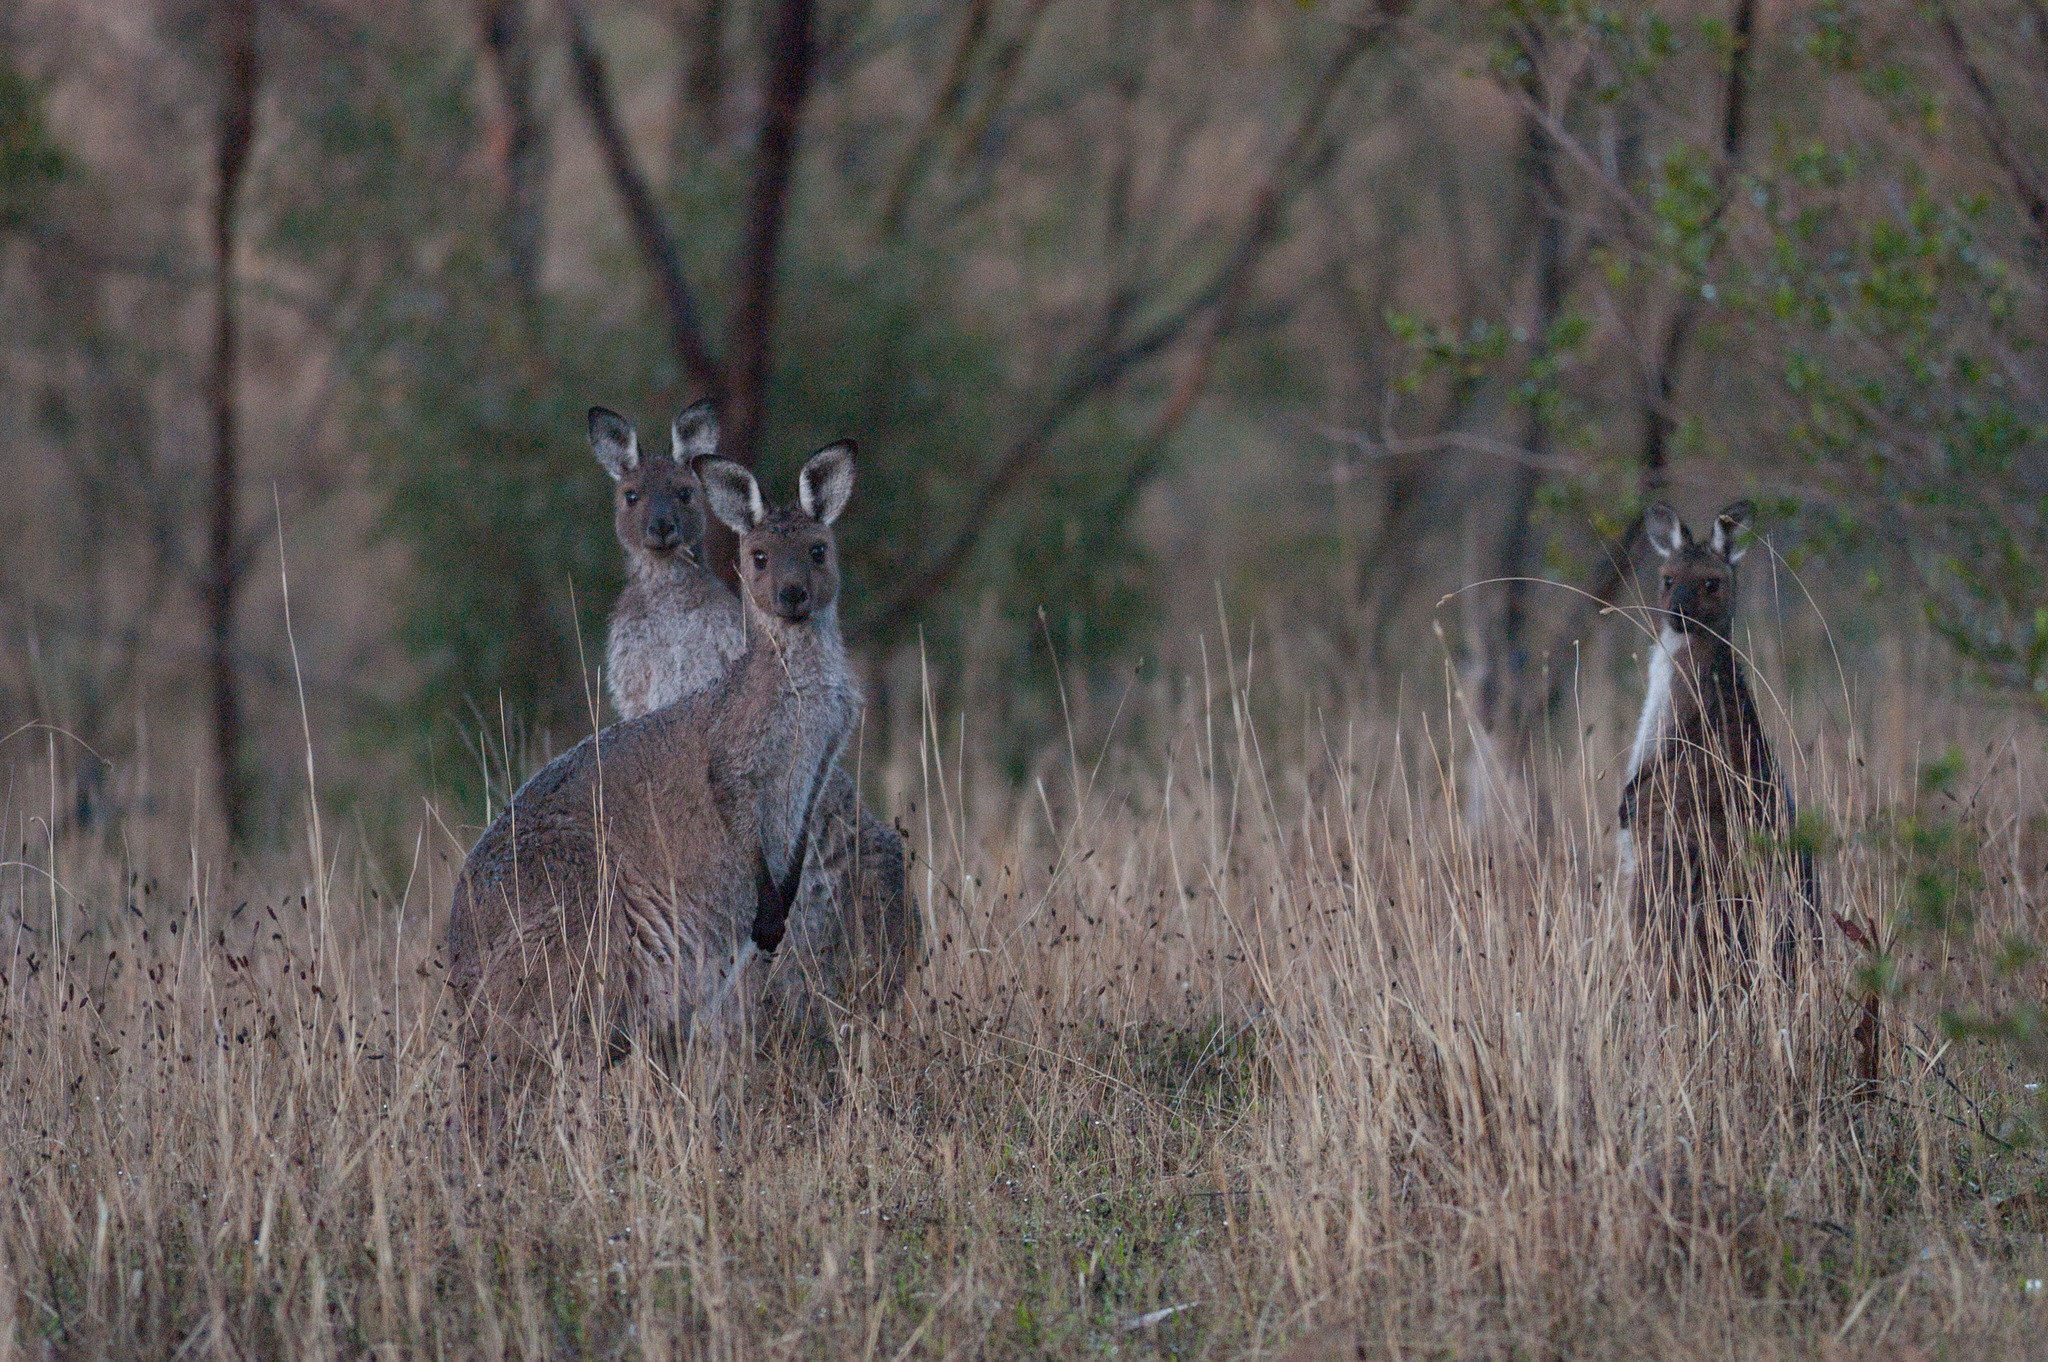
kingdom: Animalia
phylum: Chordata
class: Mammalia
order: Diprotodontia
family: Macropodidae
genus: Macropus
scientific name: Macropus fuliginosus
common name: Western grey kangaroo
